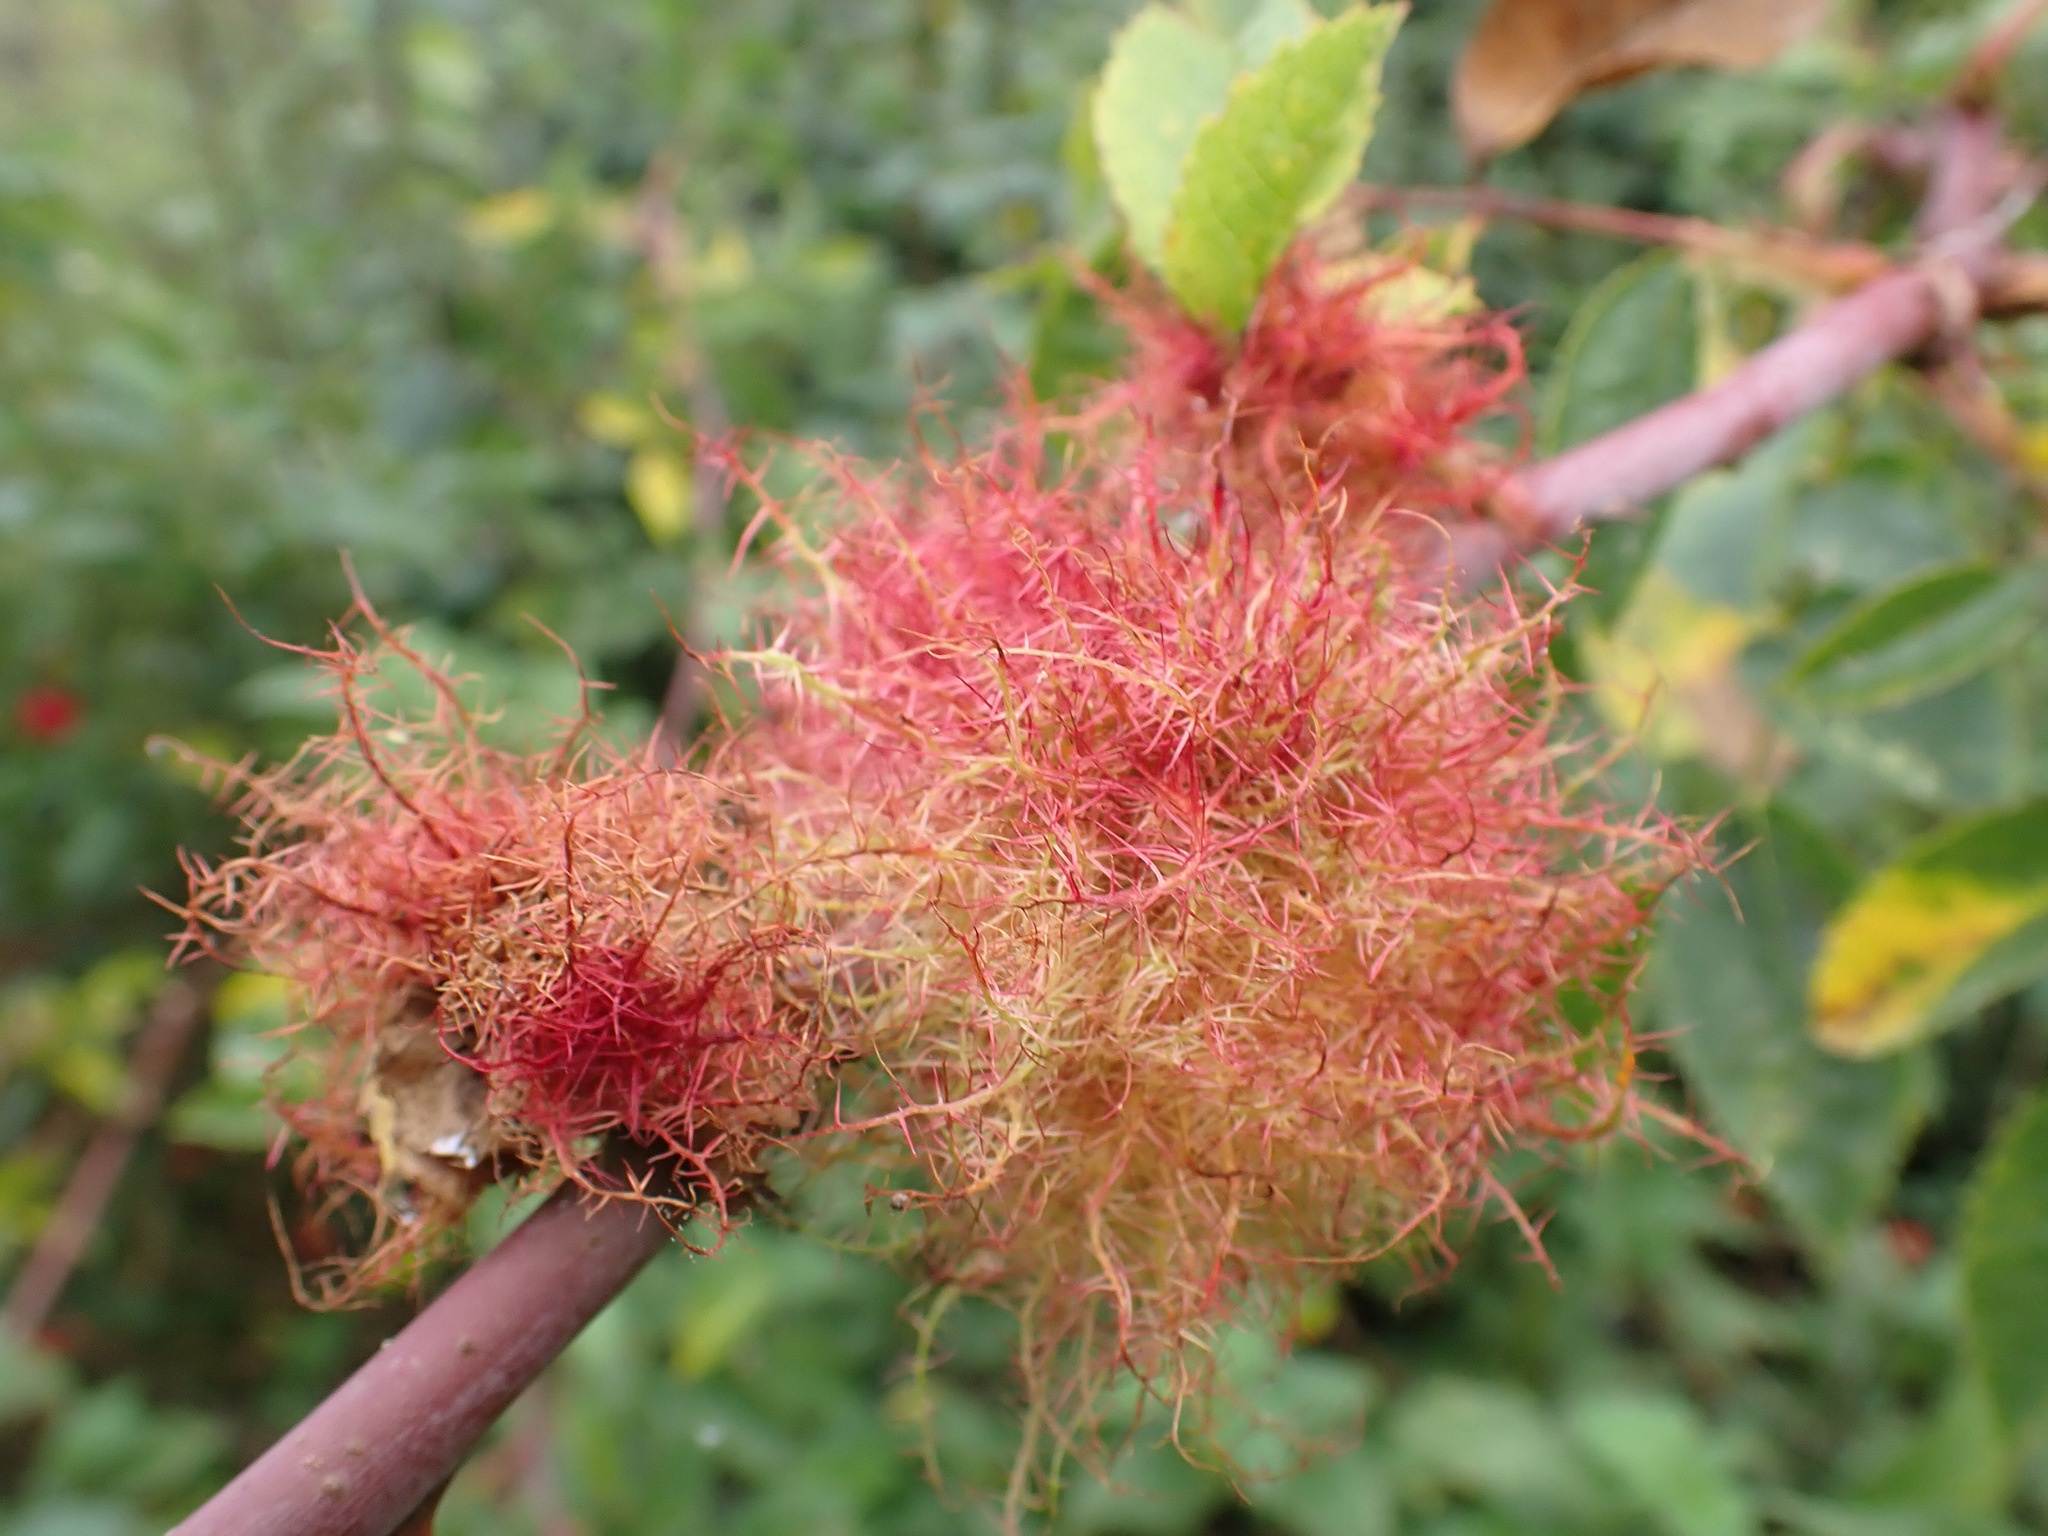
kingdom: Animalia
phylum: Arthropoda
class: Insecta
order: Hymenoptera
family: Cynipidae
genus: Diplolepis
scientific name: Diplolepis rosae
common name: Bedeguar gall
